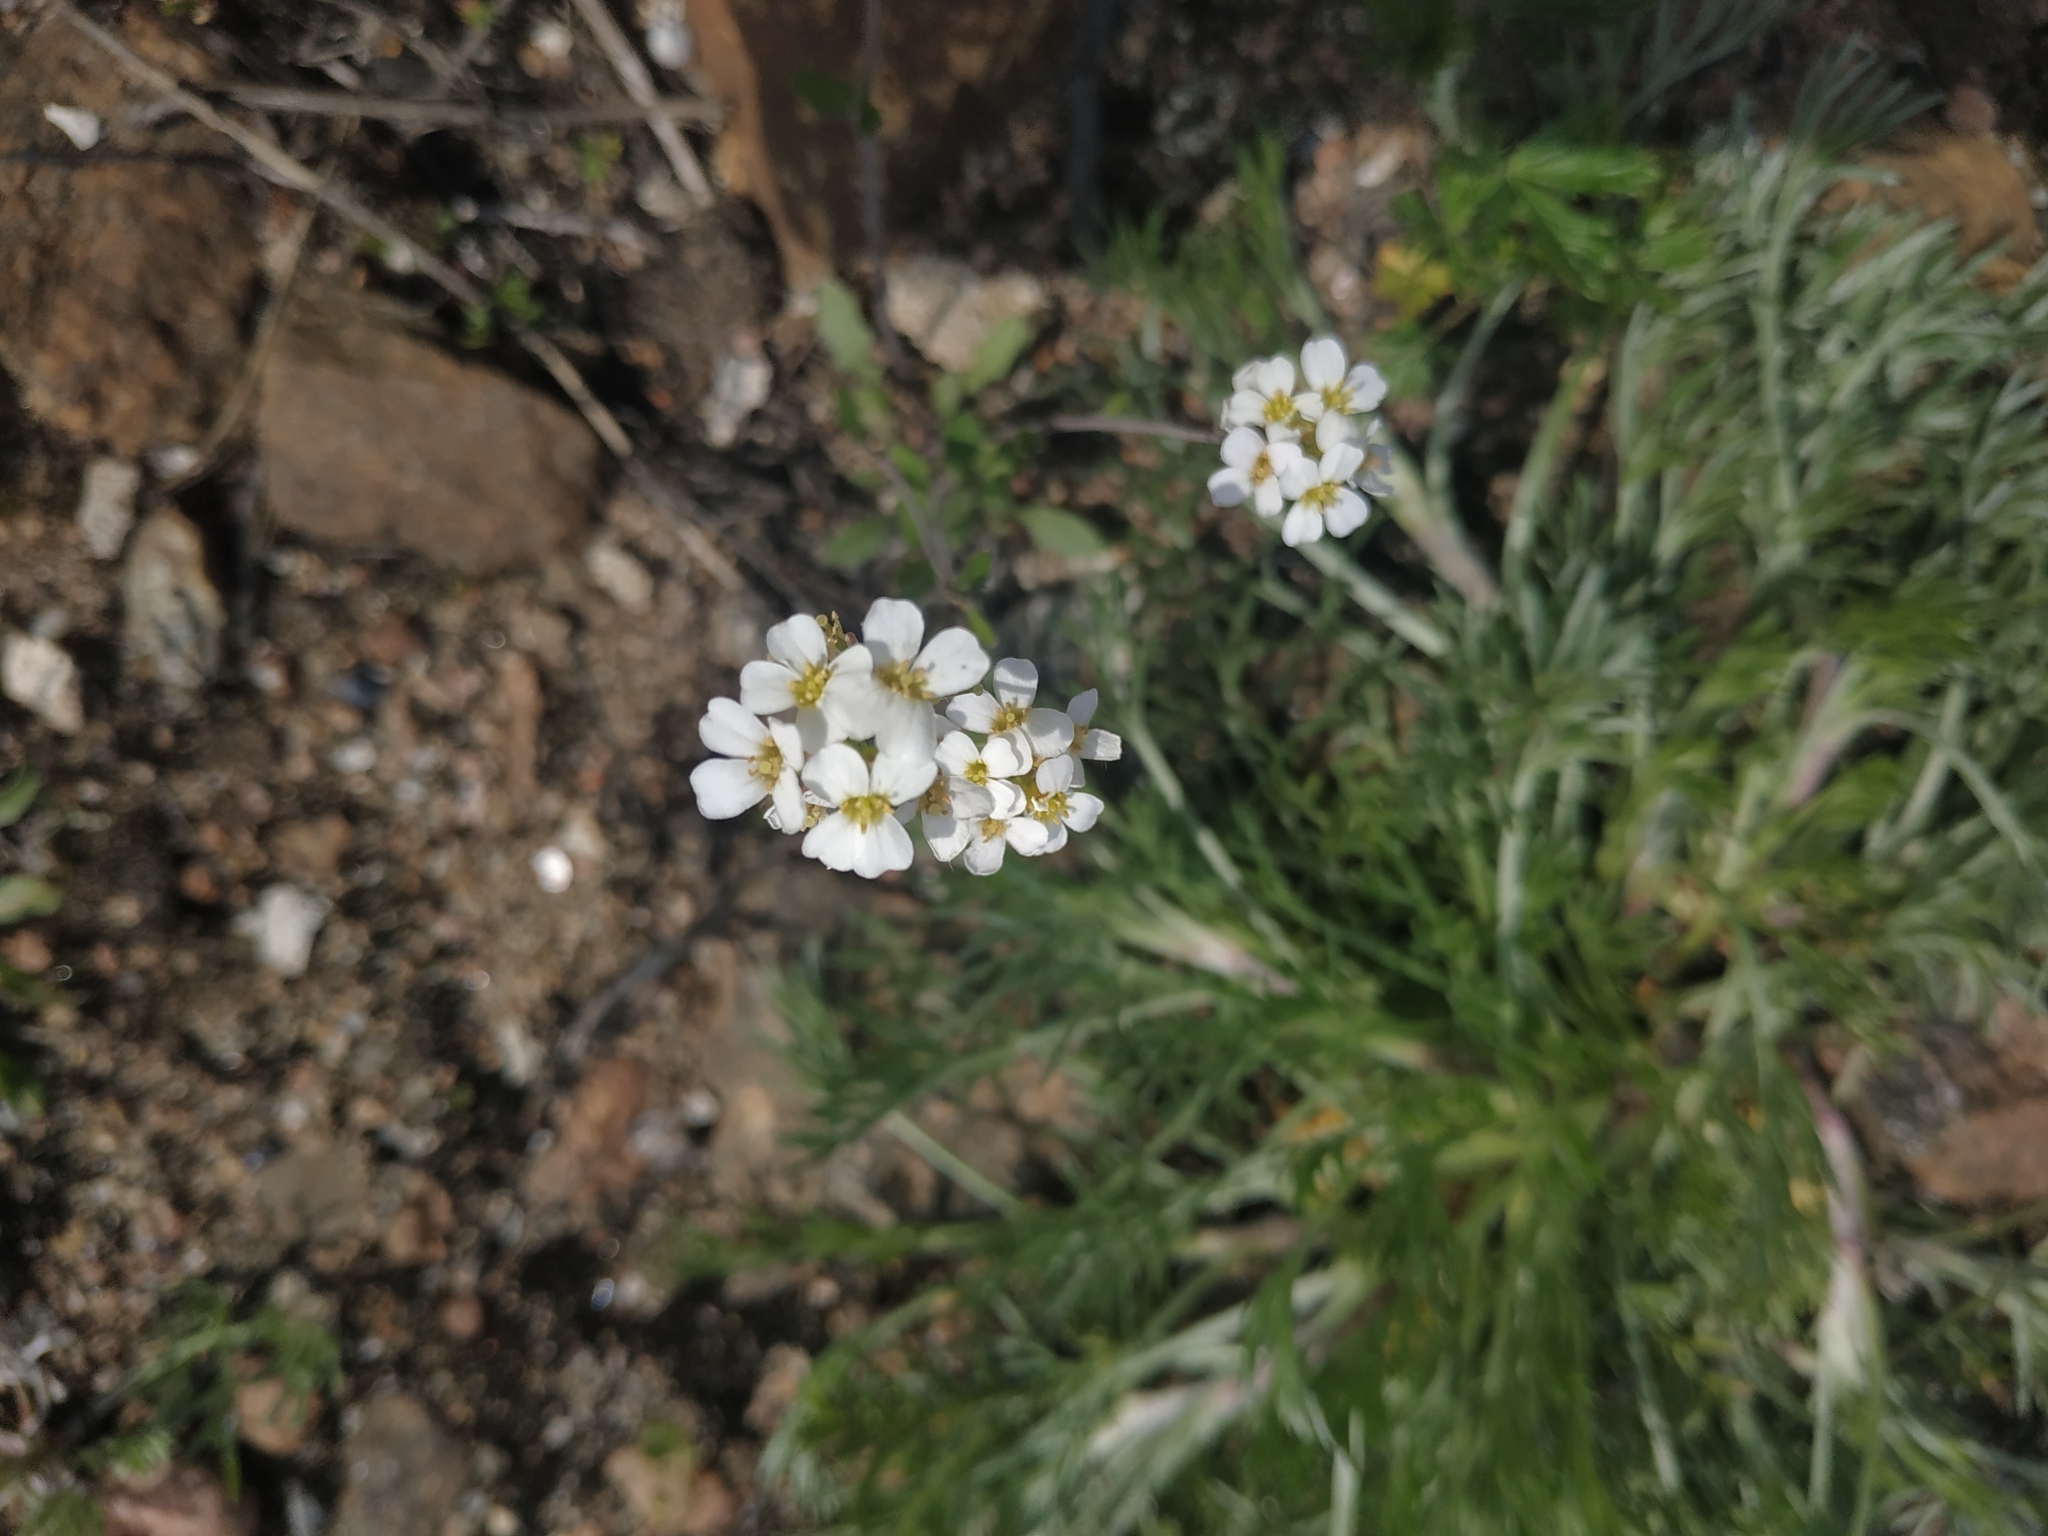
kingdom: Plantae
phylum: Tracheophyta
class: Magnoliopsida
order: Brassicales
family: Brassicaceae
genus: Arabidopsis
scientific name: Arabidopsis arenosa
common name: Sand rock-cress
